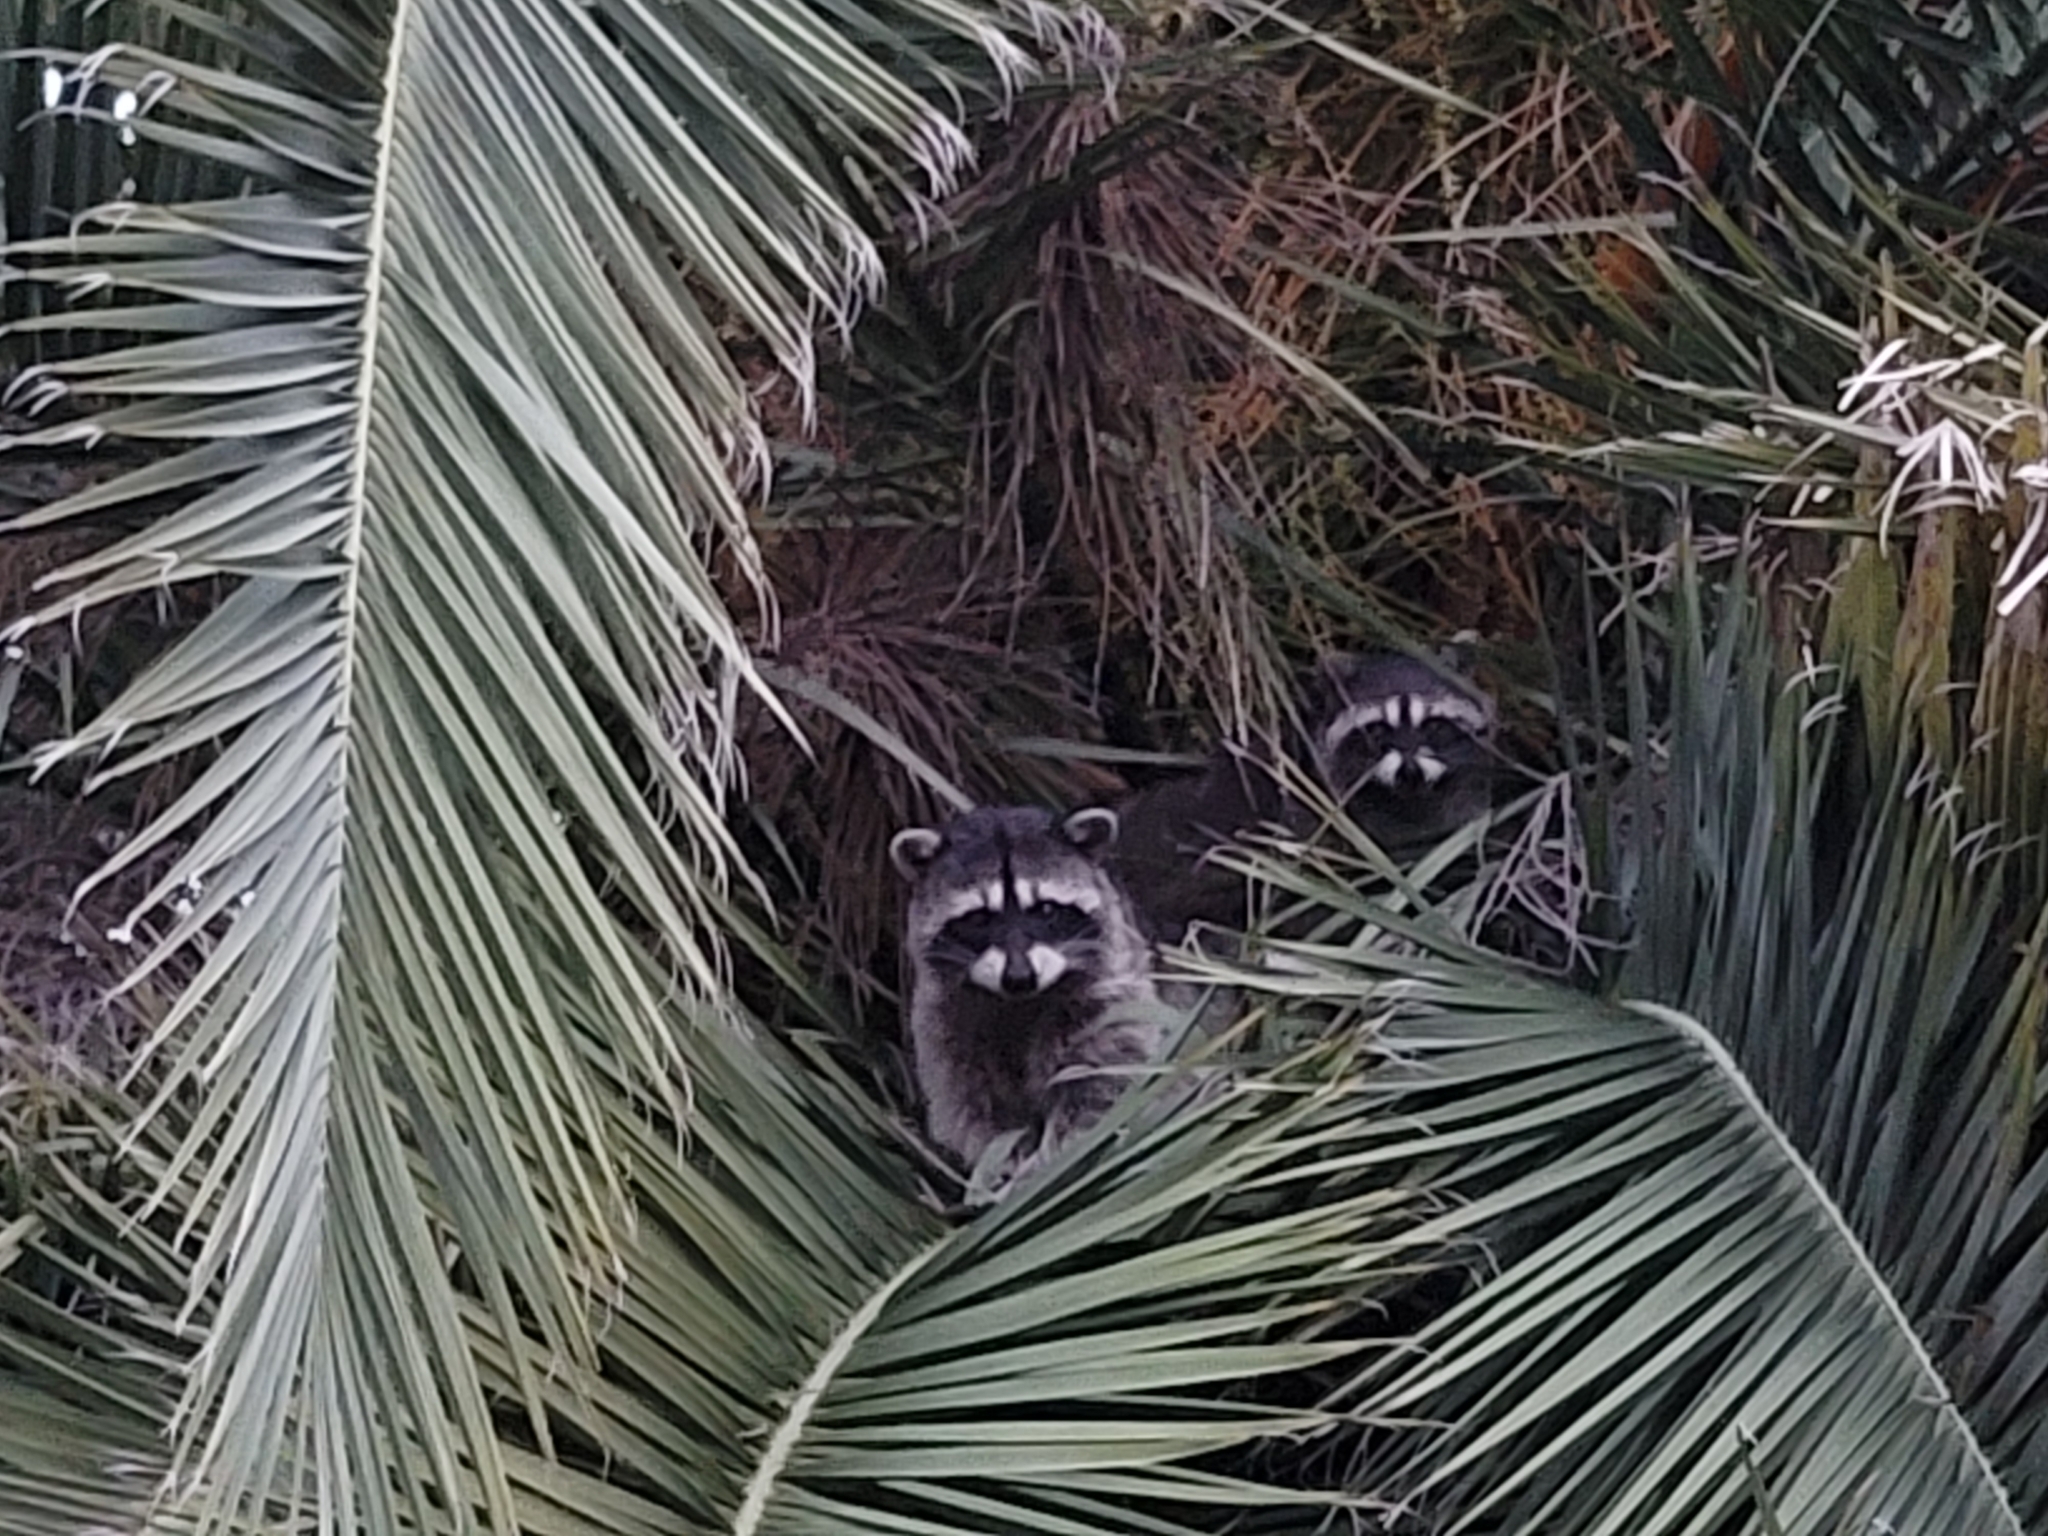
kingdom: Animalia
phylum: Chordata
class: Mammalia
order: Carnivora
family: Procyonidae
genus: Procyon
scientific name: Procyon lotor
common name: Raccoon
